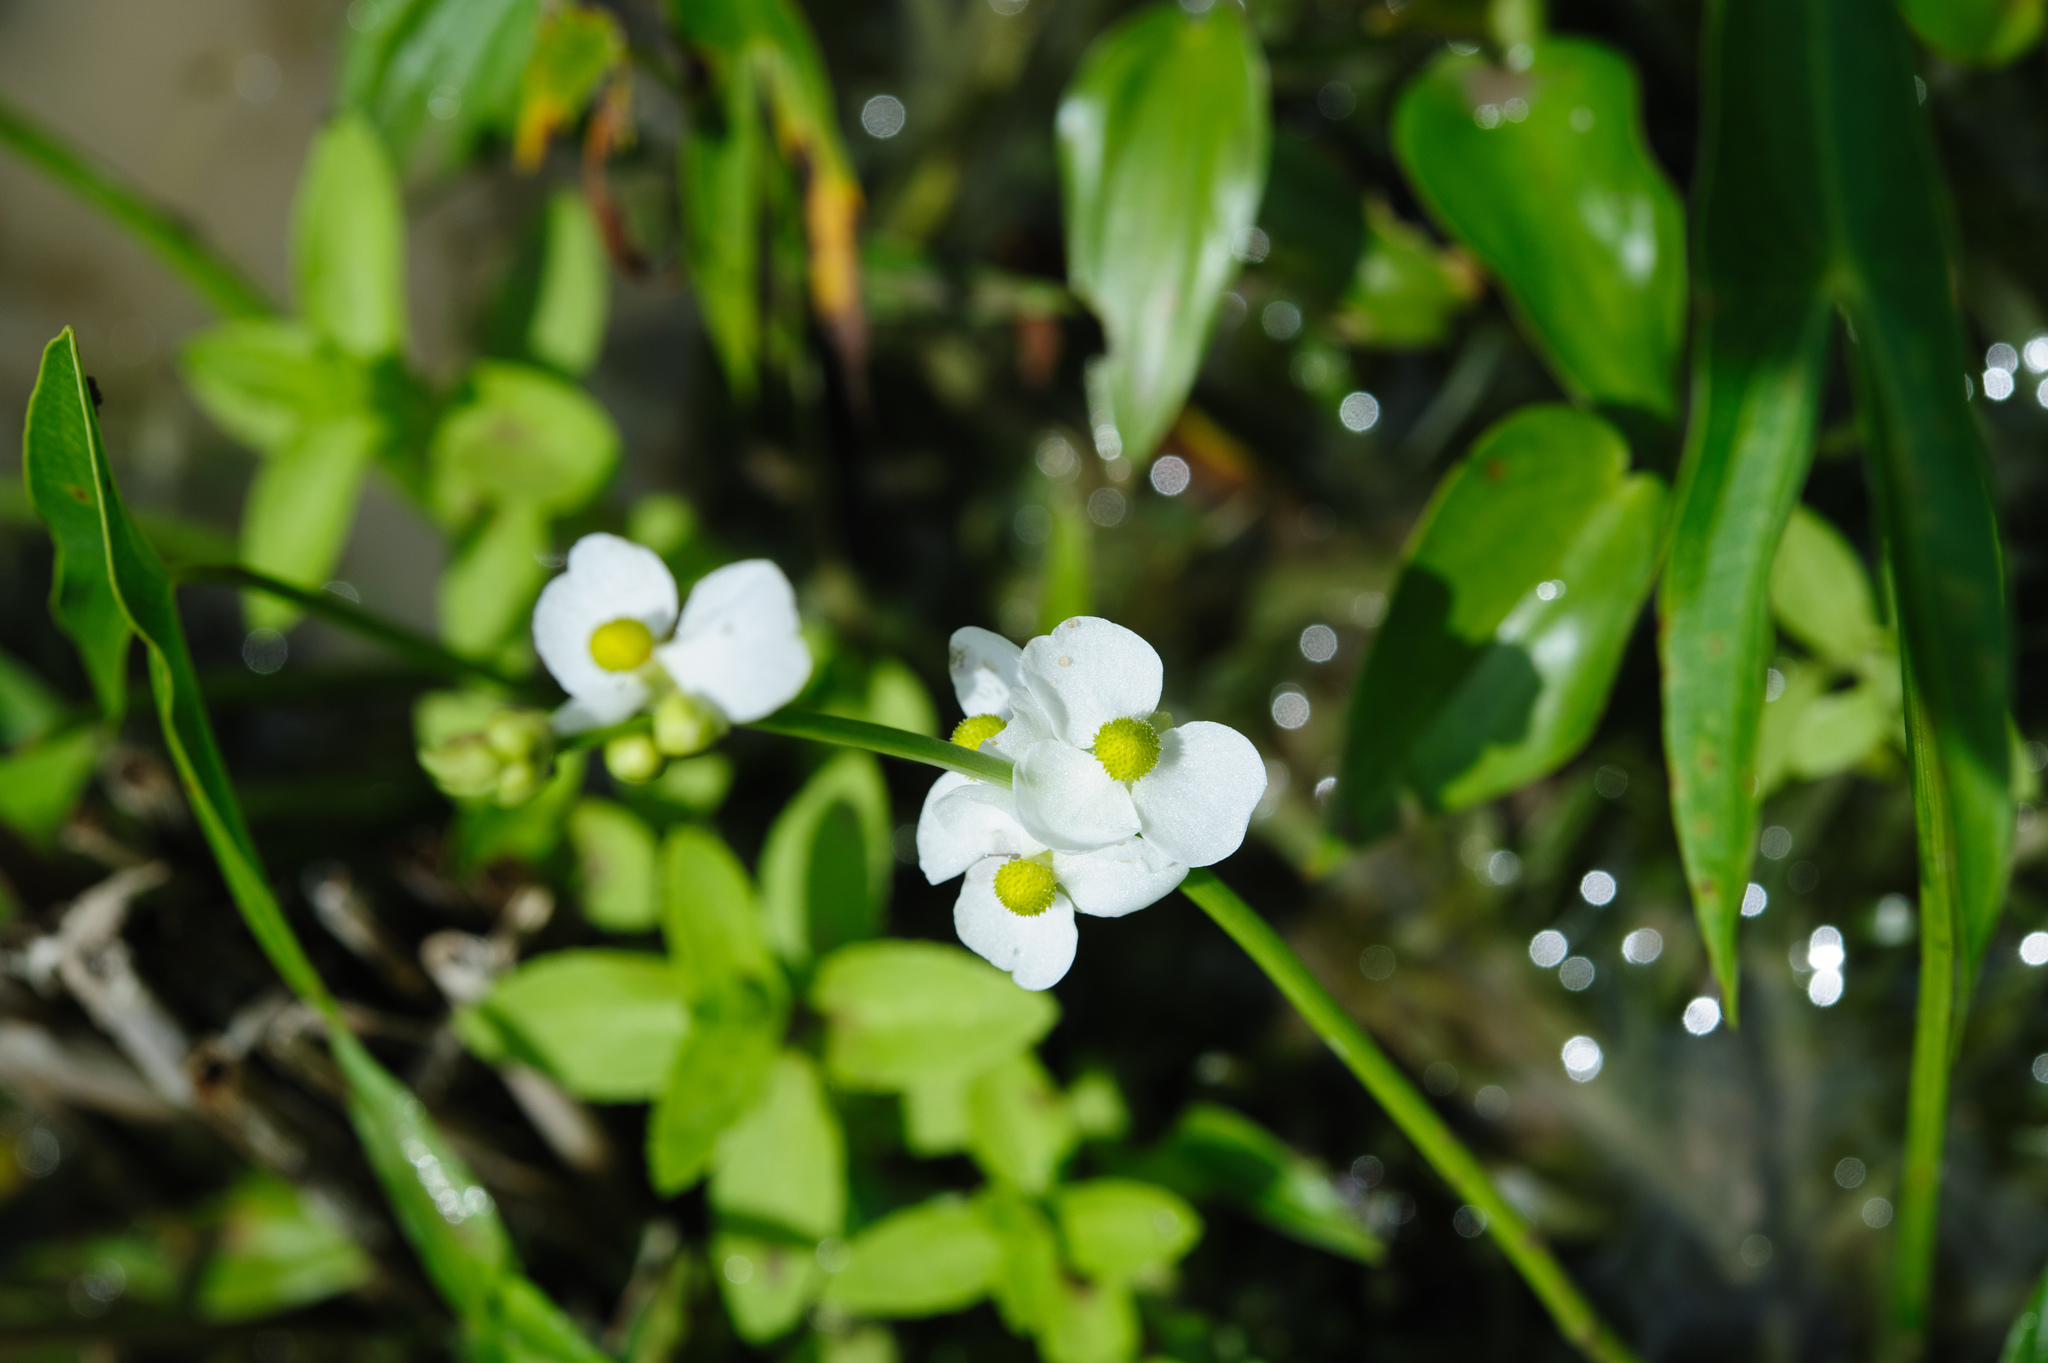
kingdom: Plantae
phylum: Tracheophyta
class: Liliopsida
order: Alismatales
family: Alismataceae
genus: Sagittaria
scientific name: Sagittaria trifolia
